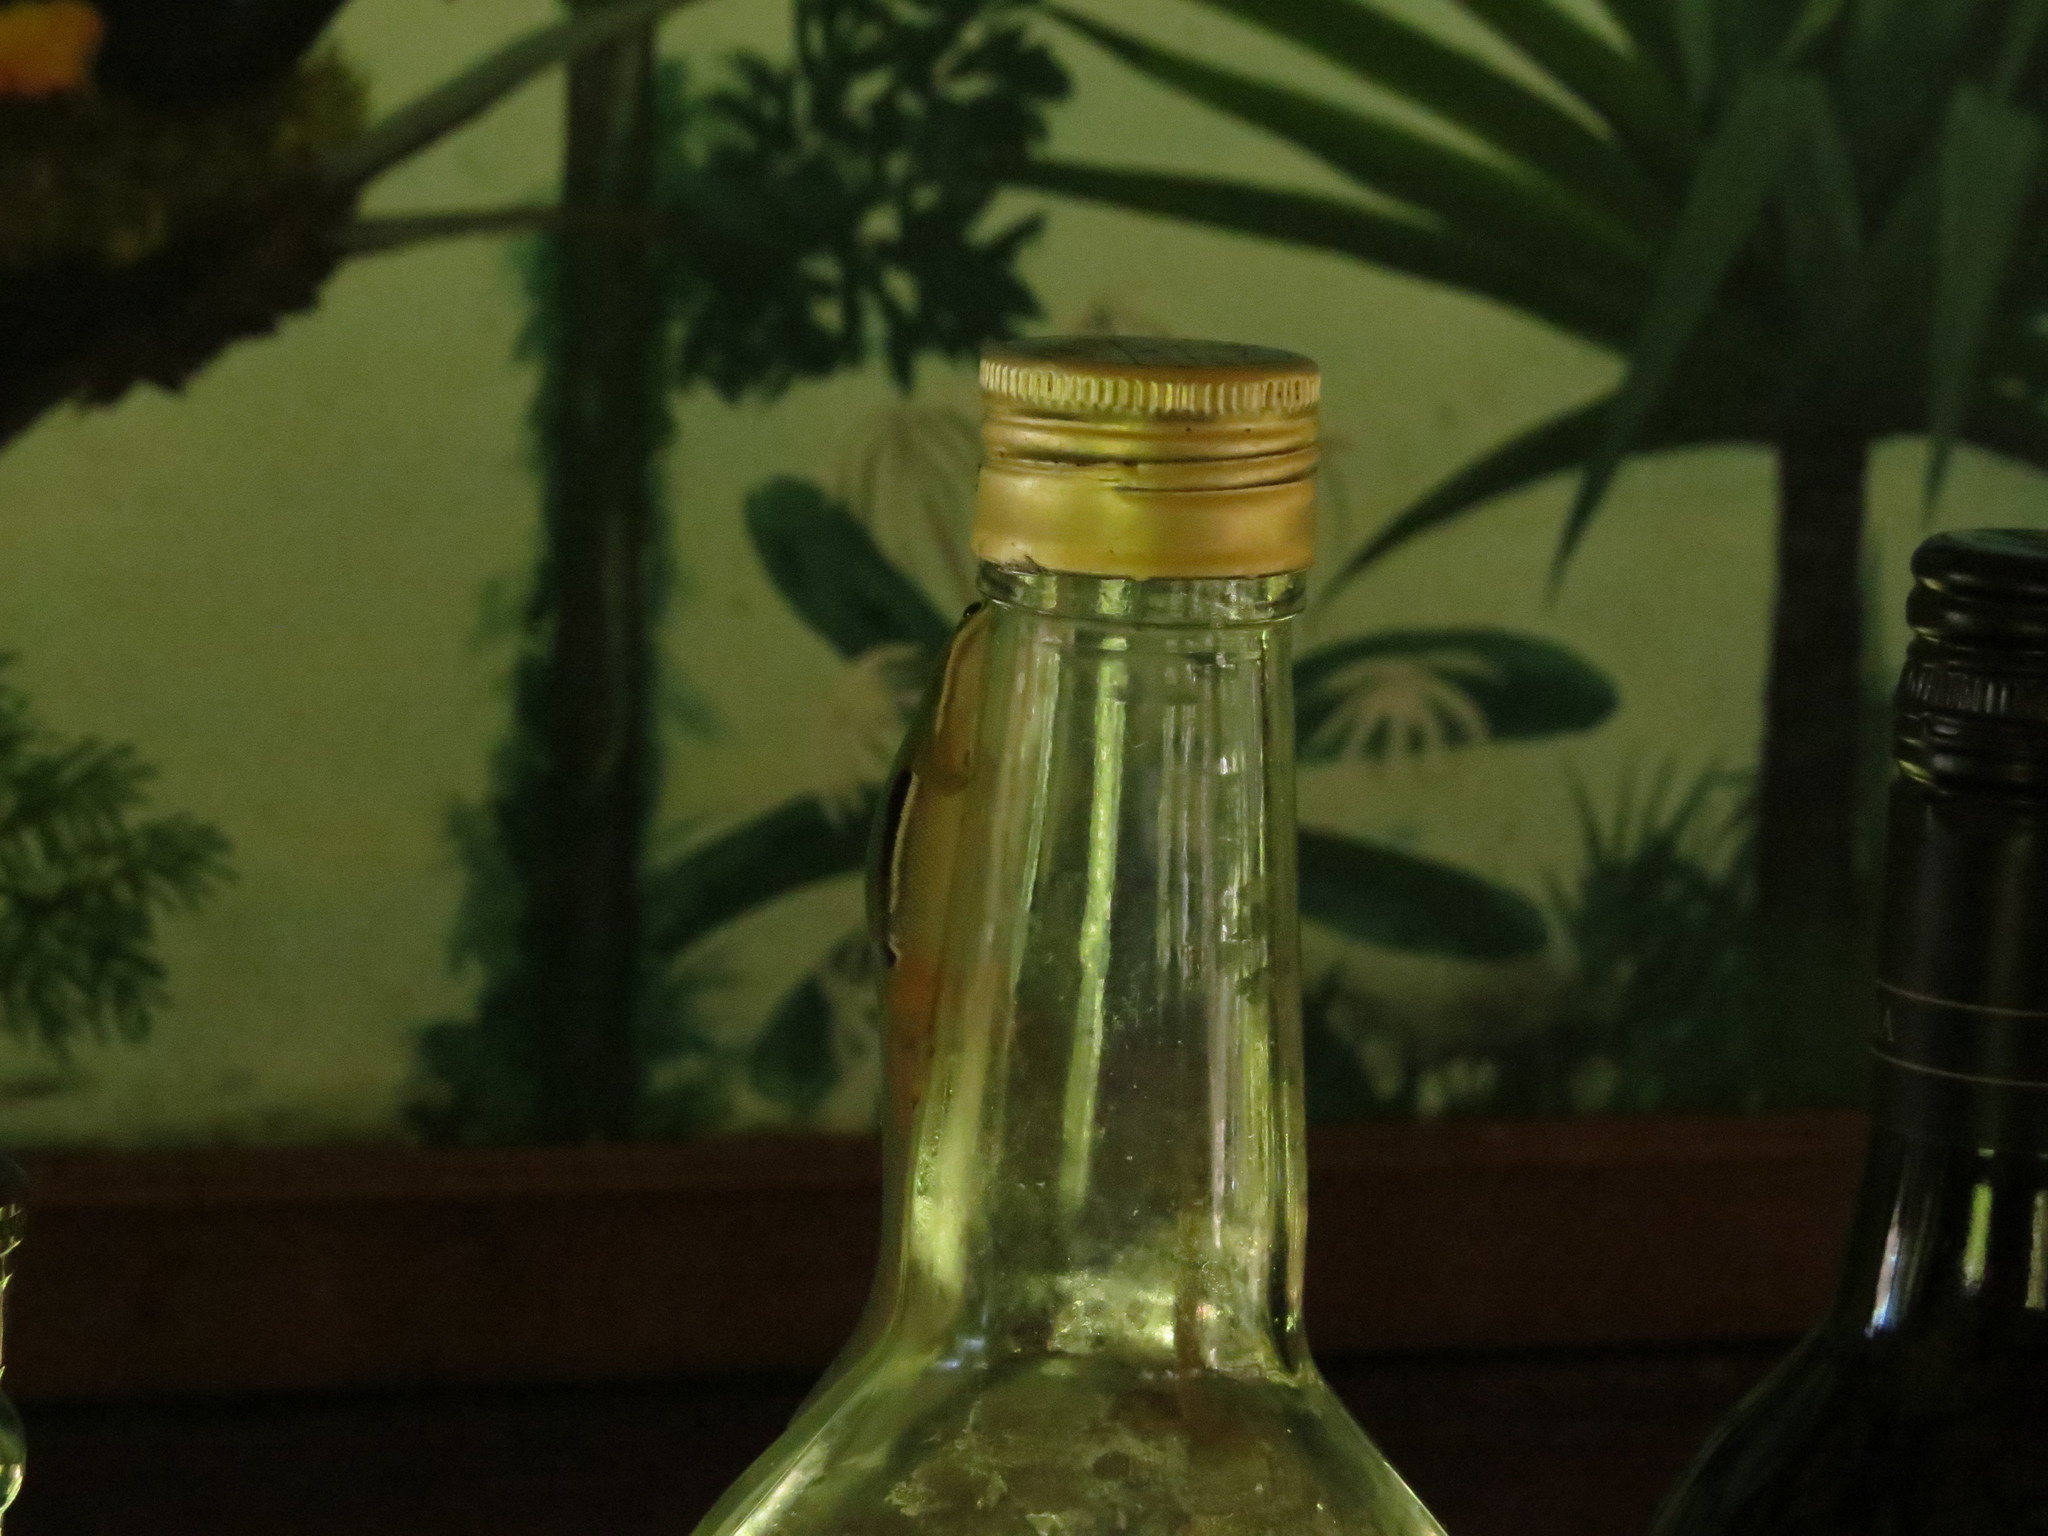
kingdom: Animalia
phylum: Chordata
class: Squamata
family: Gekkonidae
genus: Phelsuma
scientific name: Phelsuma pusilla
